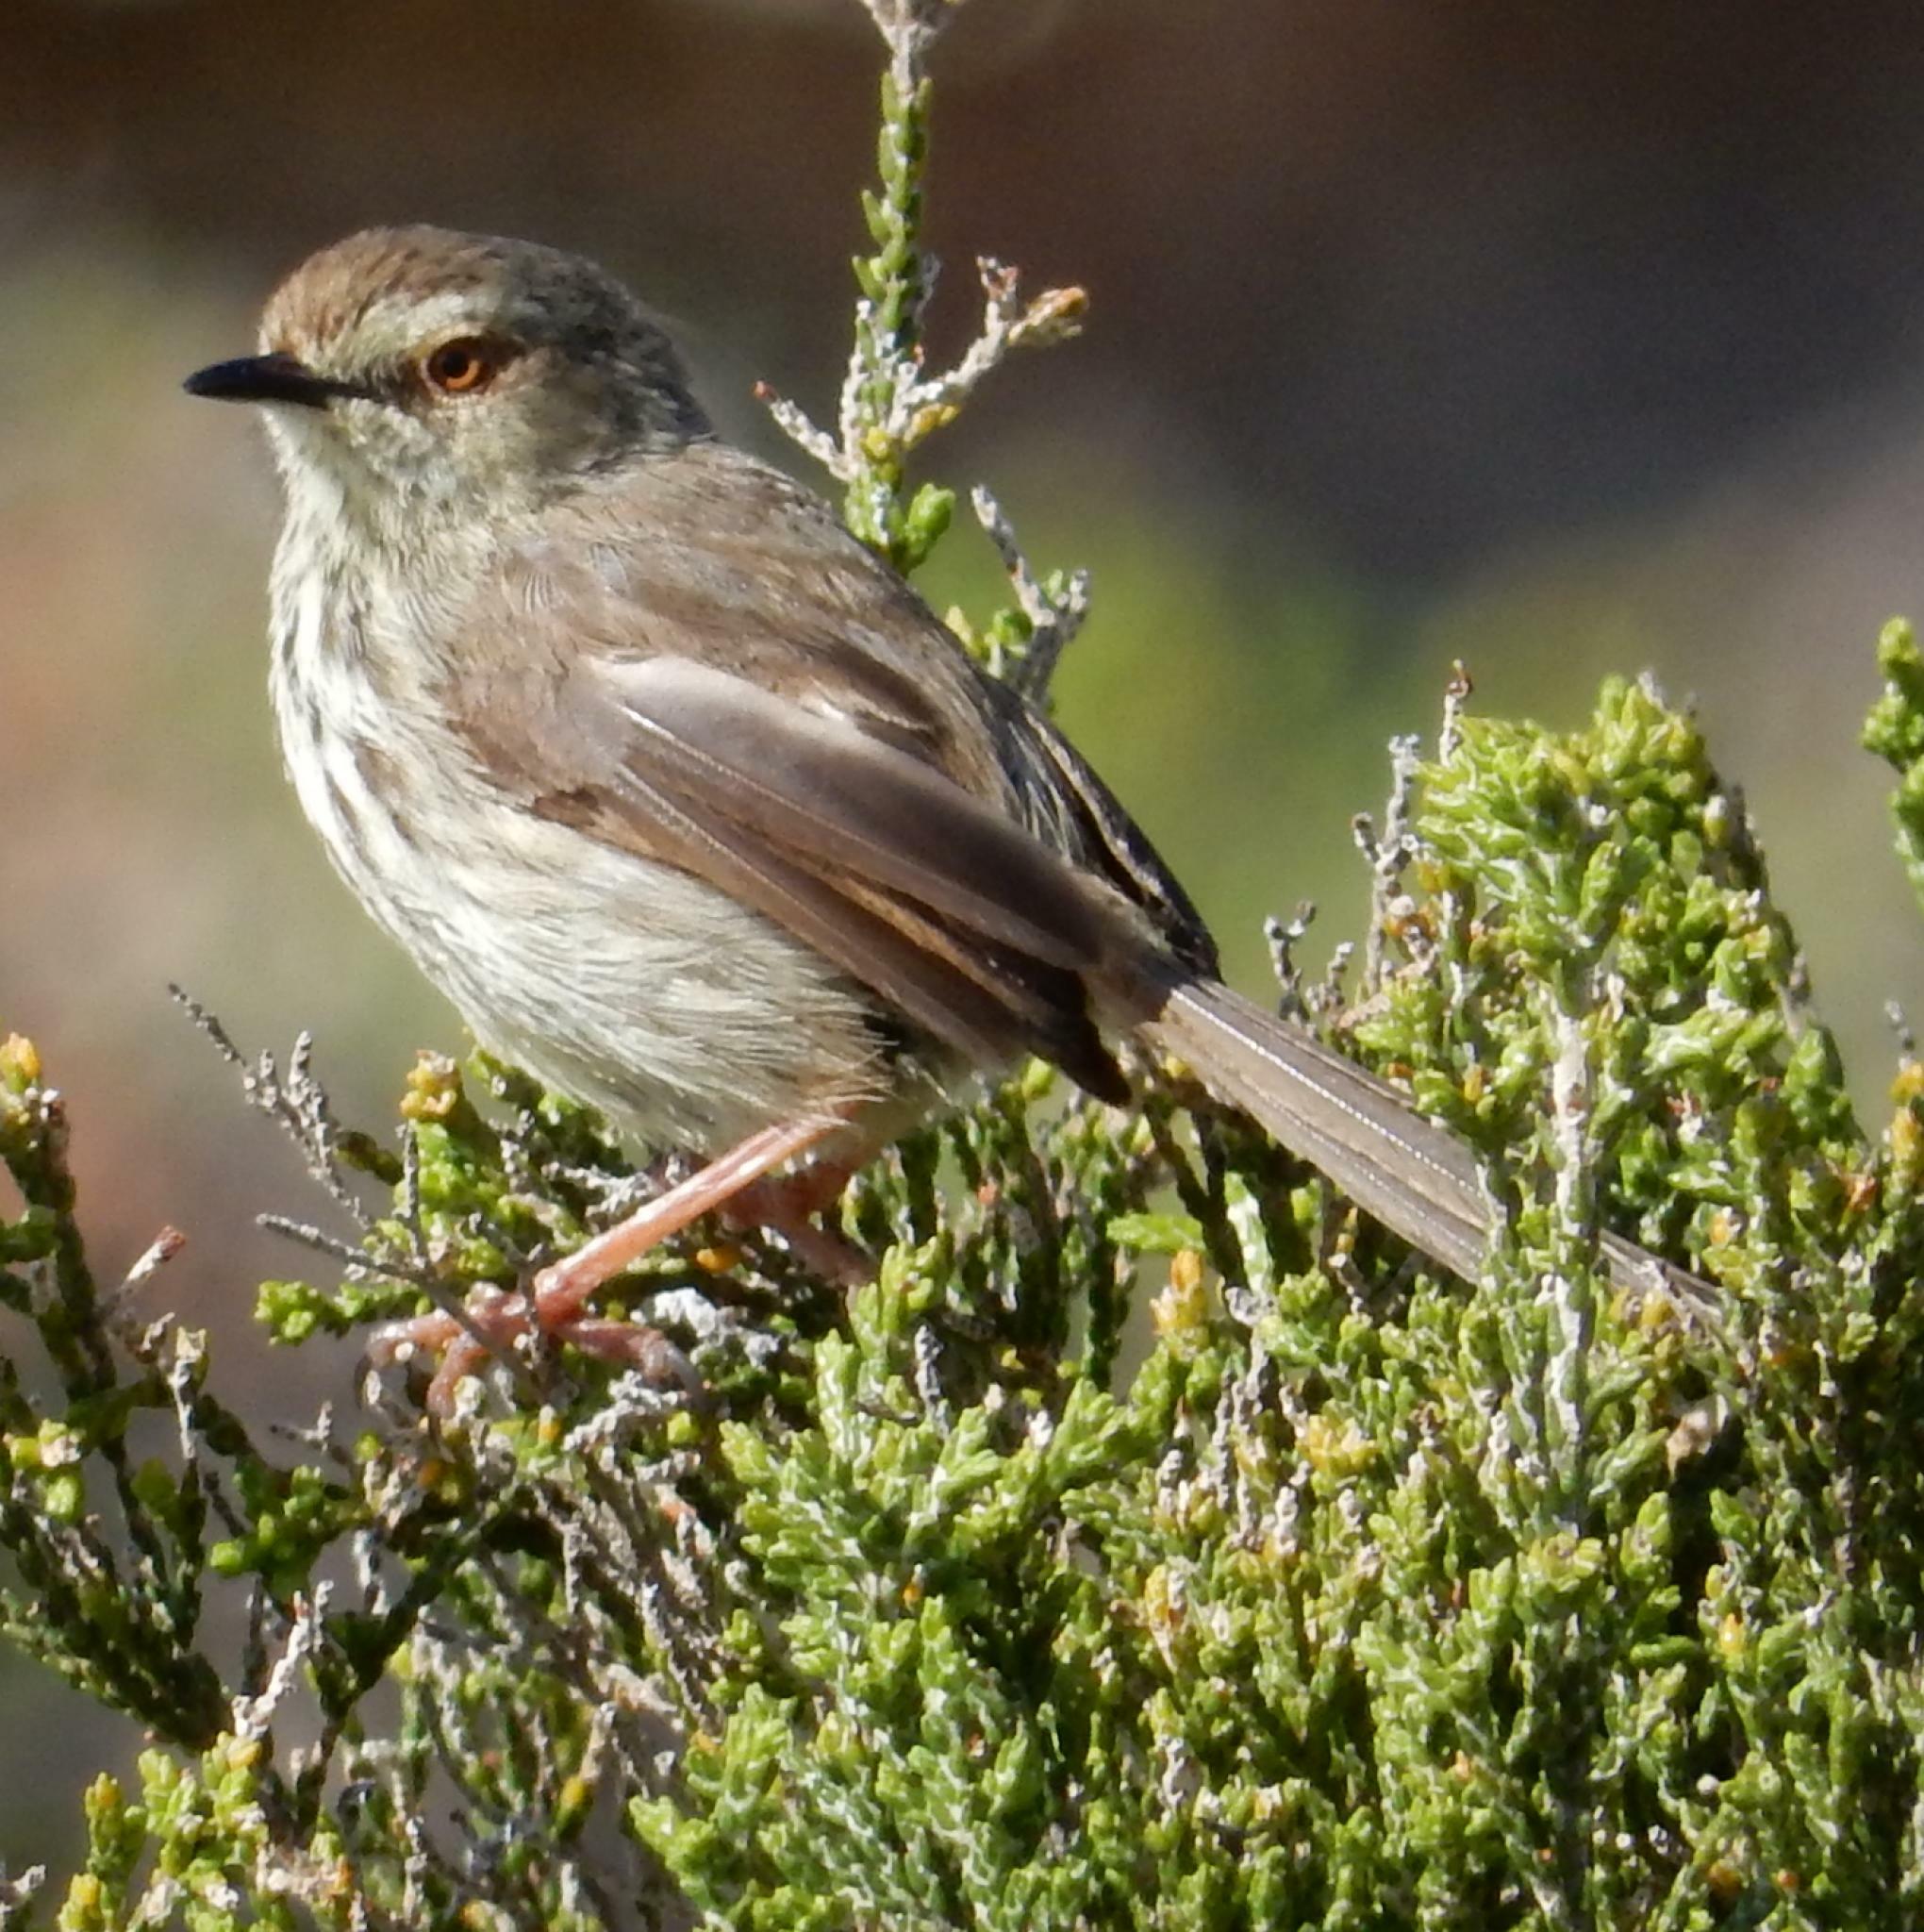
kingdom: Animalia
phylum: Chordata
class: Aves
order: Passeriformes
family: Cisticolidae
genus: Prinia
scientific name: Prinia maculosa
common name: Karoo prinia
